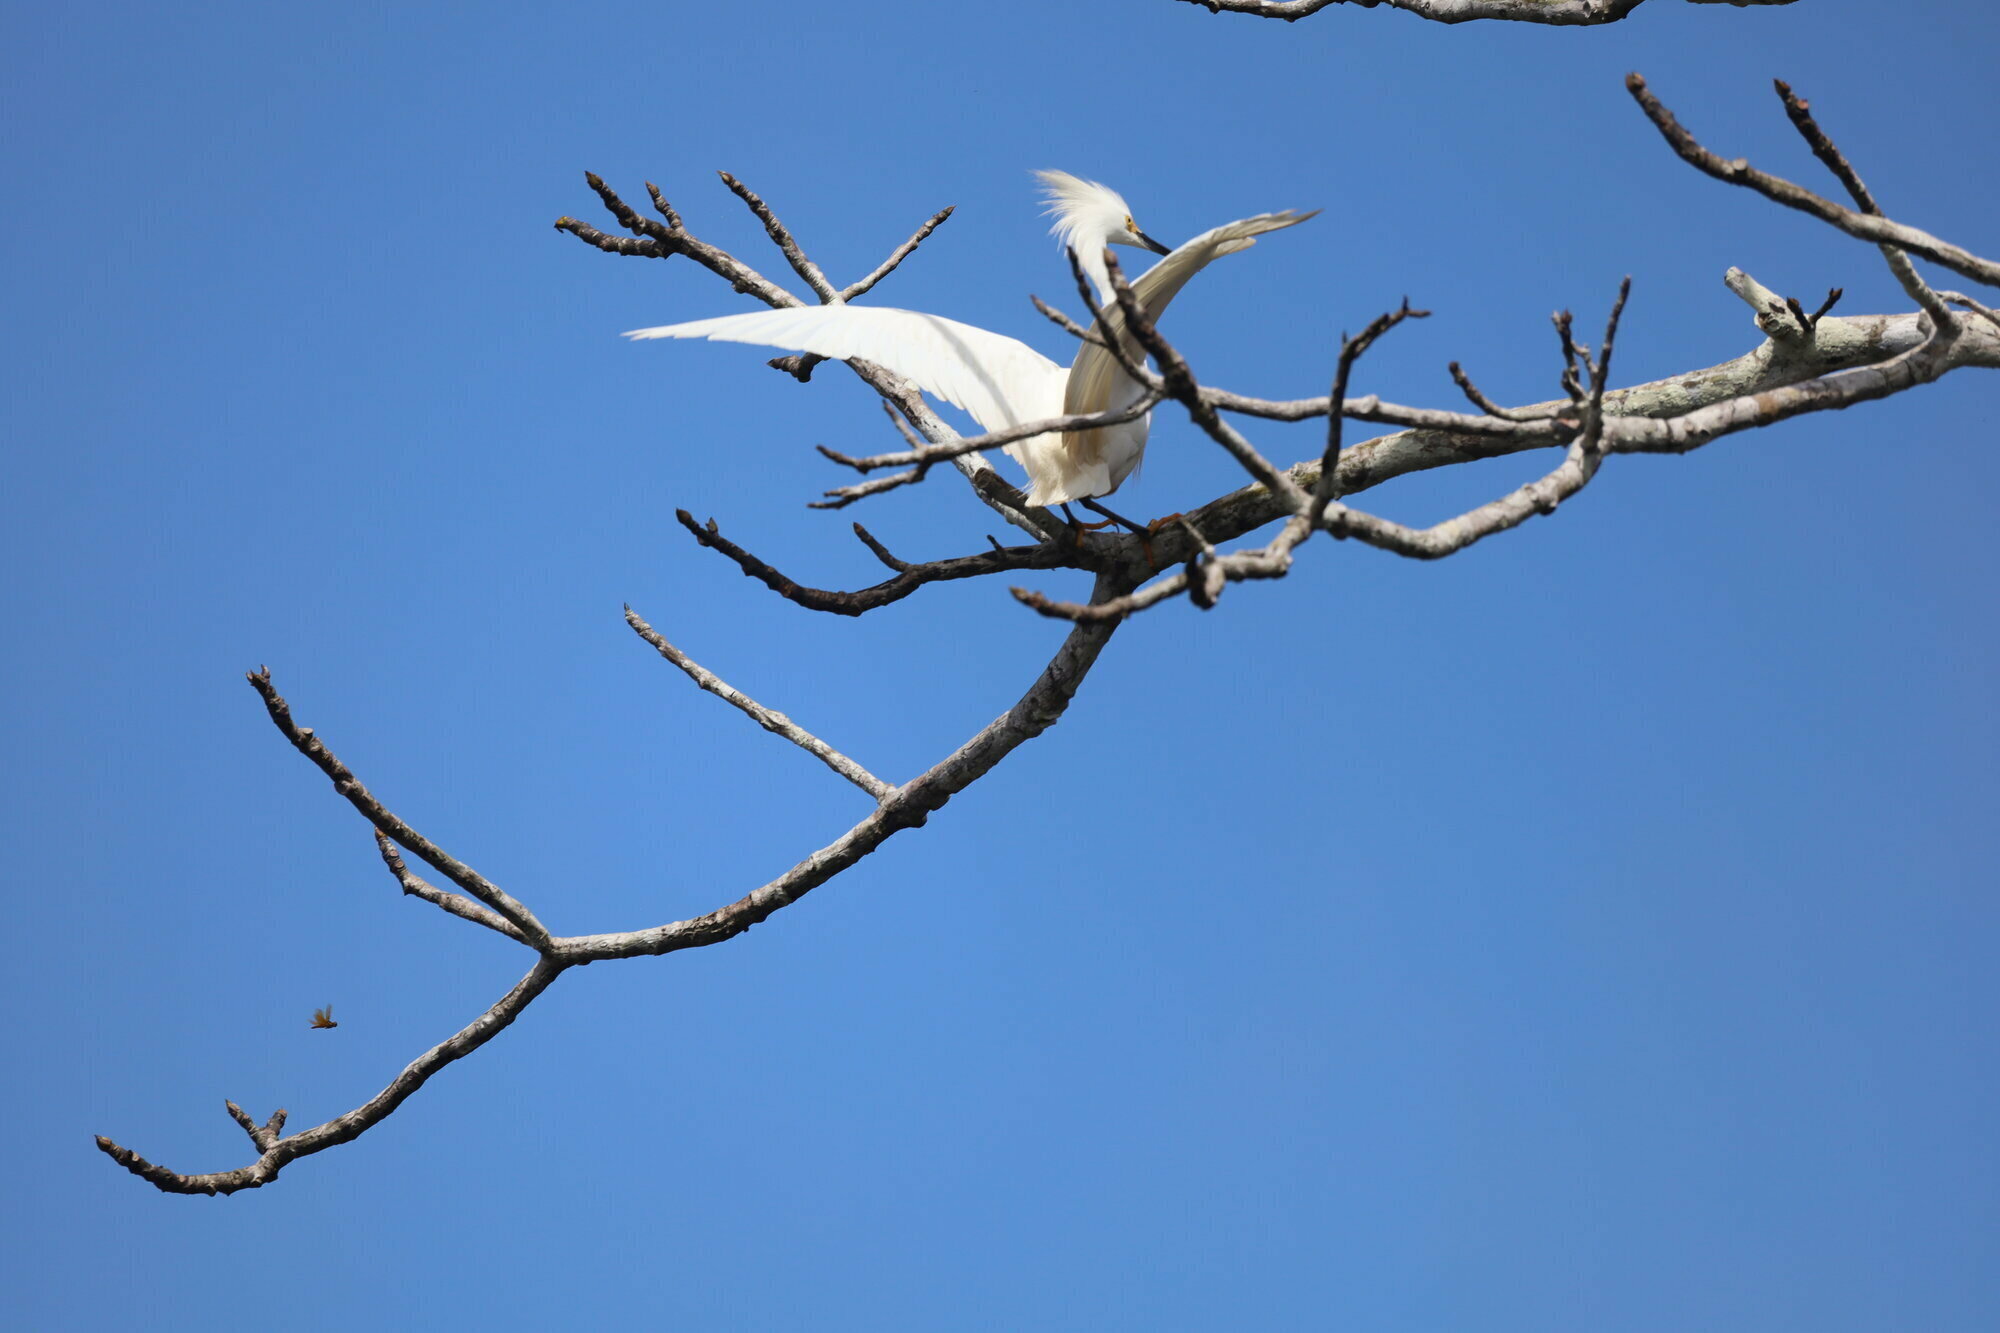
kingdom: Animalia
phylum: Chordata
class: Aves
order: Pelecaniformes
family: Ardeidae
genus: Egretta
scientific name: Egretta thula
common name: Snowy egret
